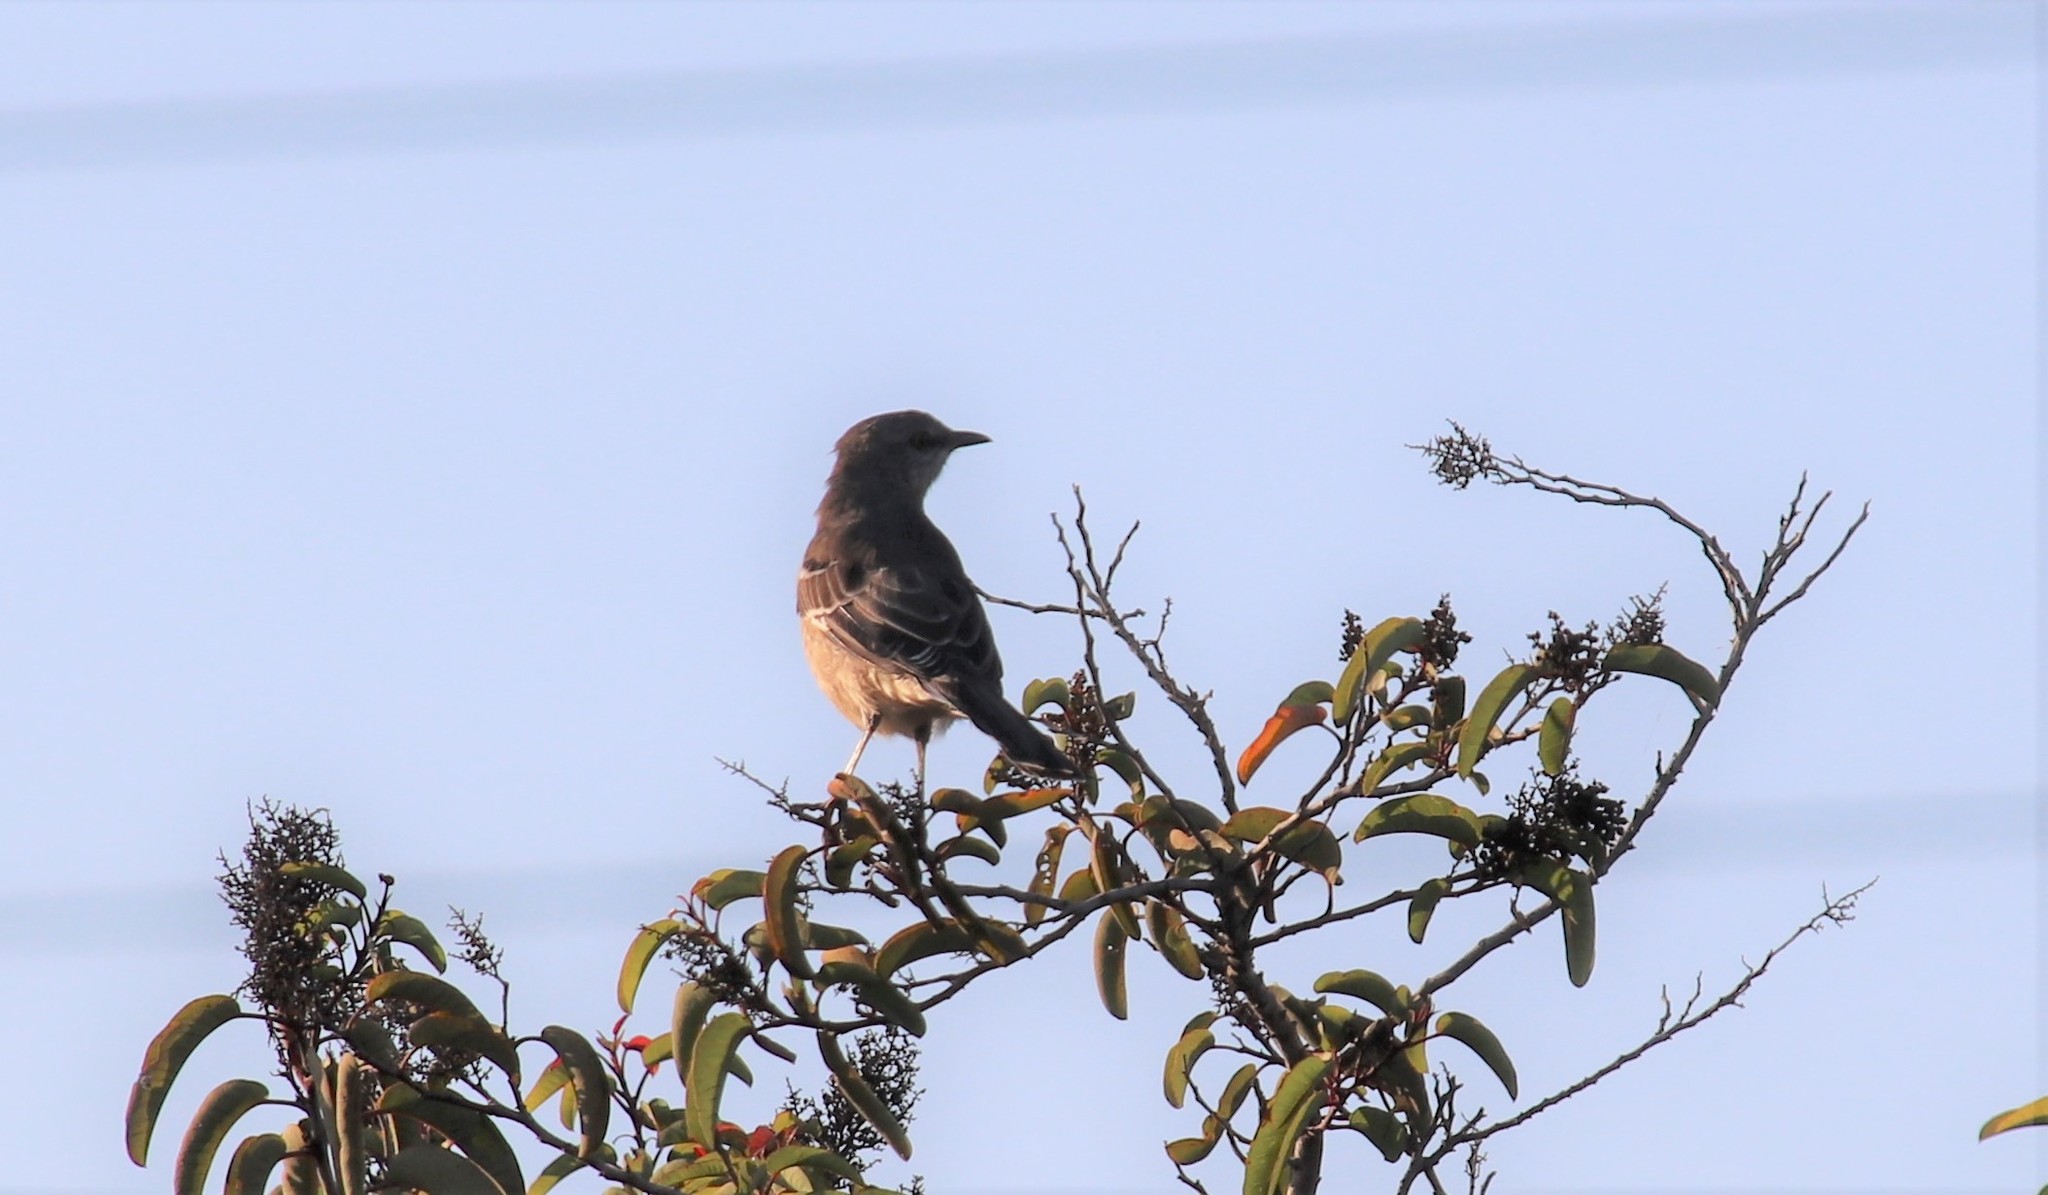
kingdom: Animalia
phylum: Chordata
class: Aves
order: Passeriformes
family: Mimidae
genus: Mimus
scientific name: Mimus polyglottos
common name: Northern mockingbird
